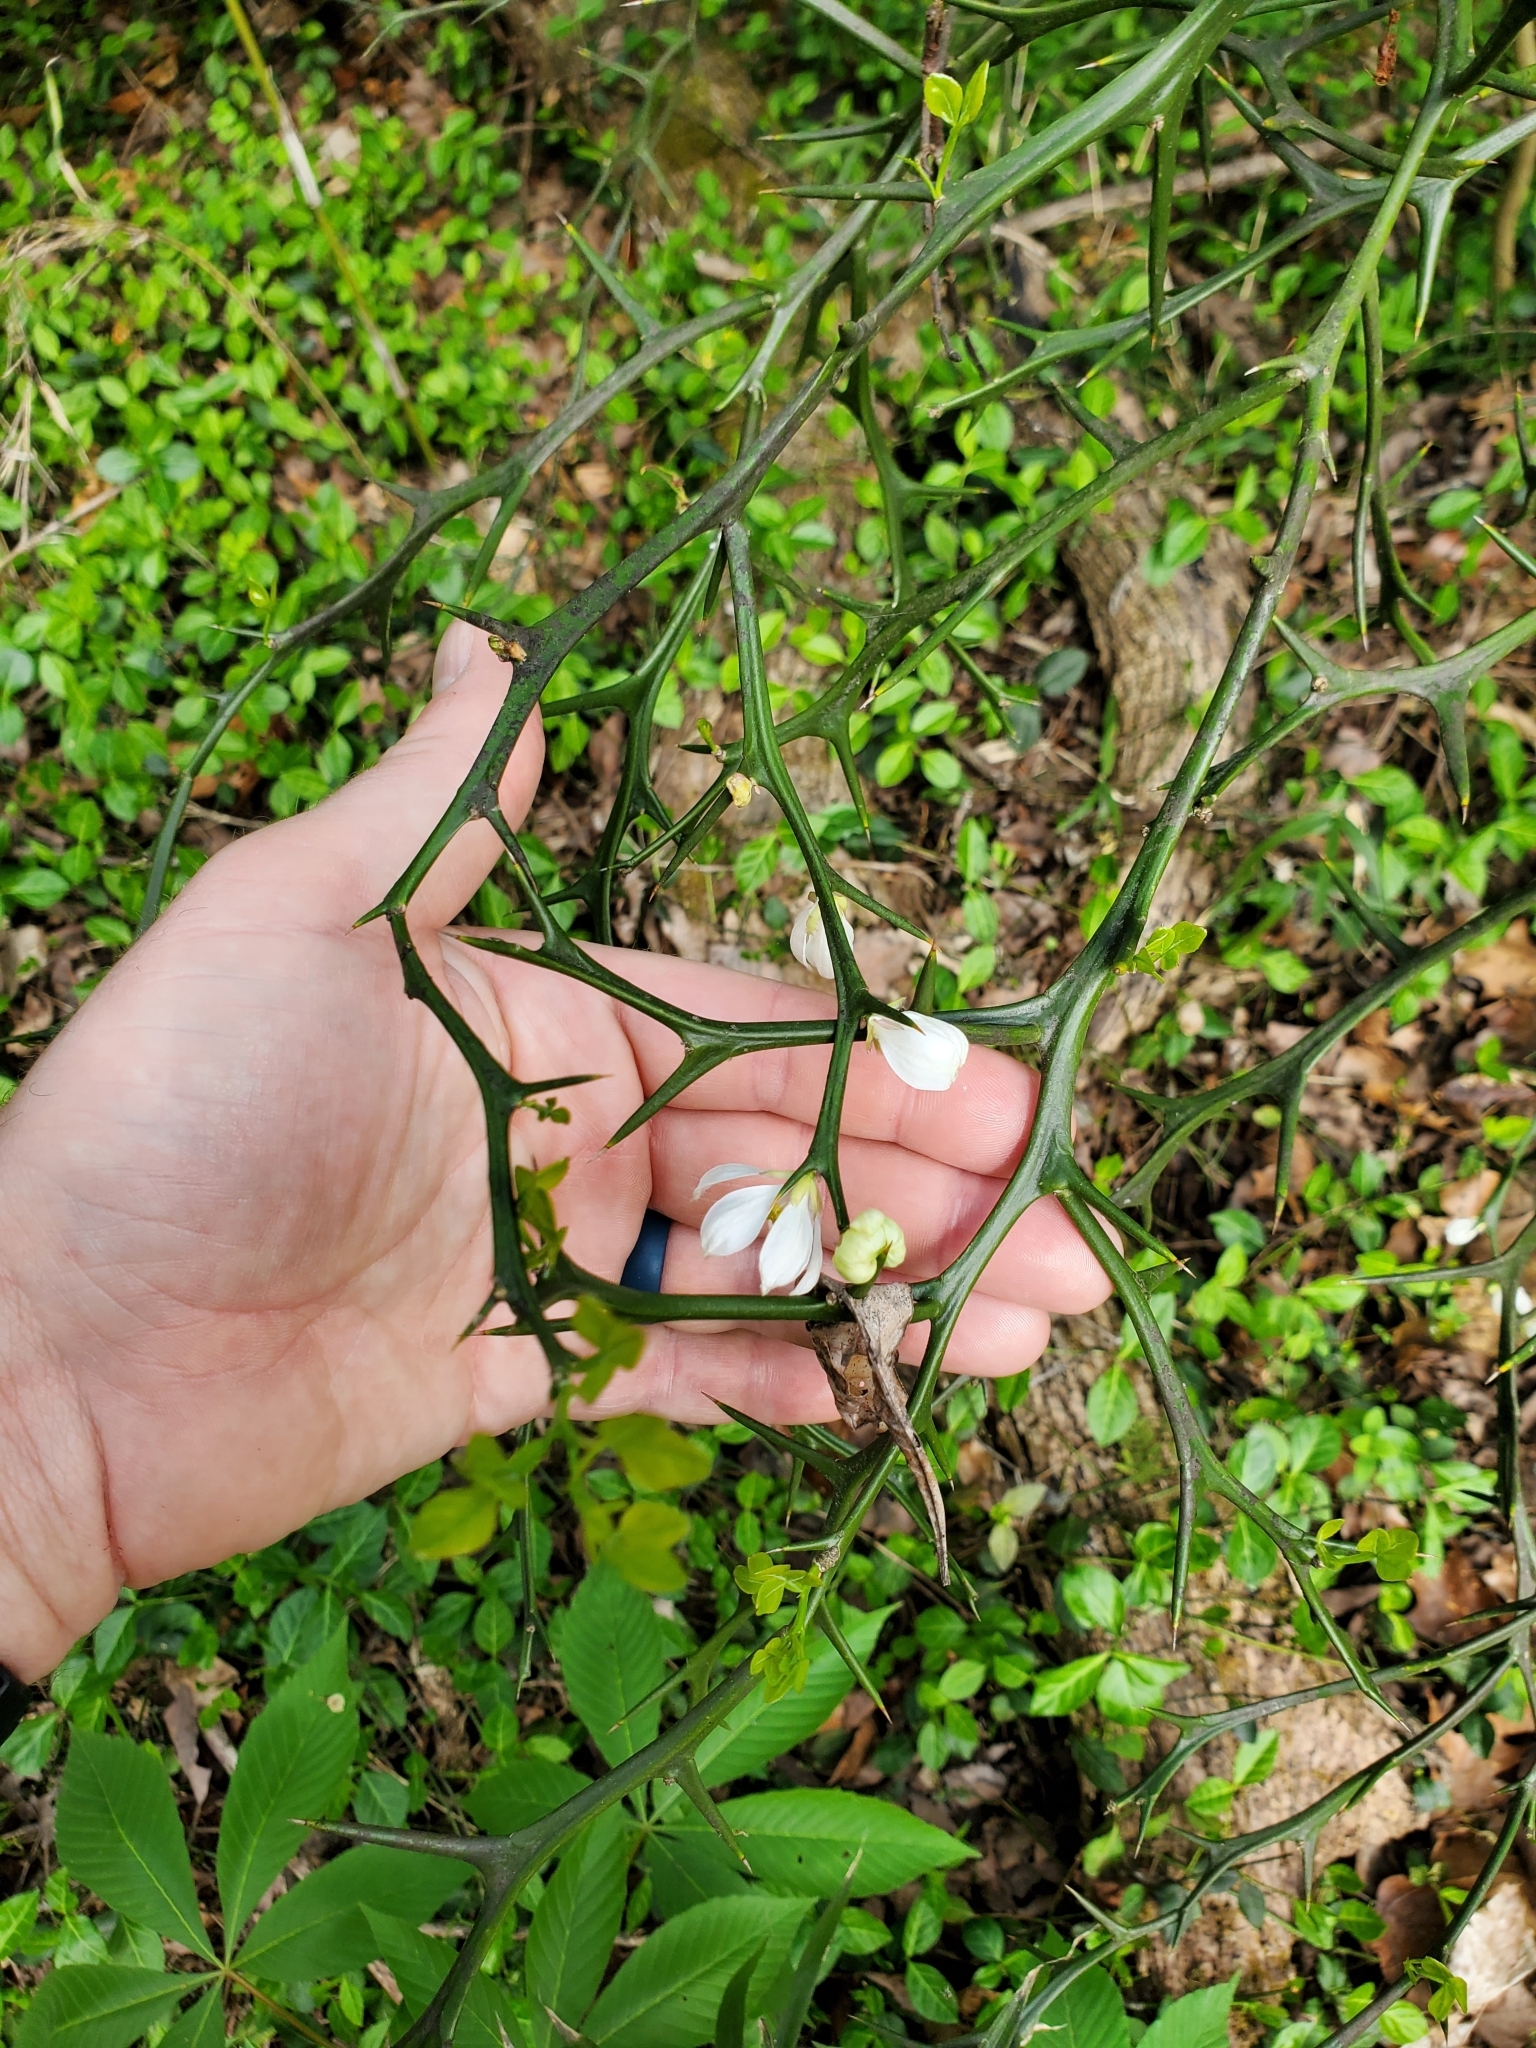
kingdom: Plantae
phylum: Tracheophyta
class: Magnoliopsida
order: Sapindales
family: Rutaceae
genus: Citrus
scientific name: Citrus trifoliata
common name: Japanese bitter-orange
